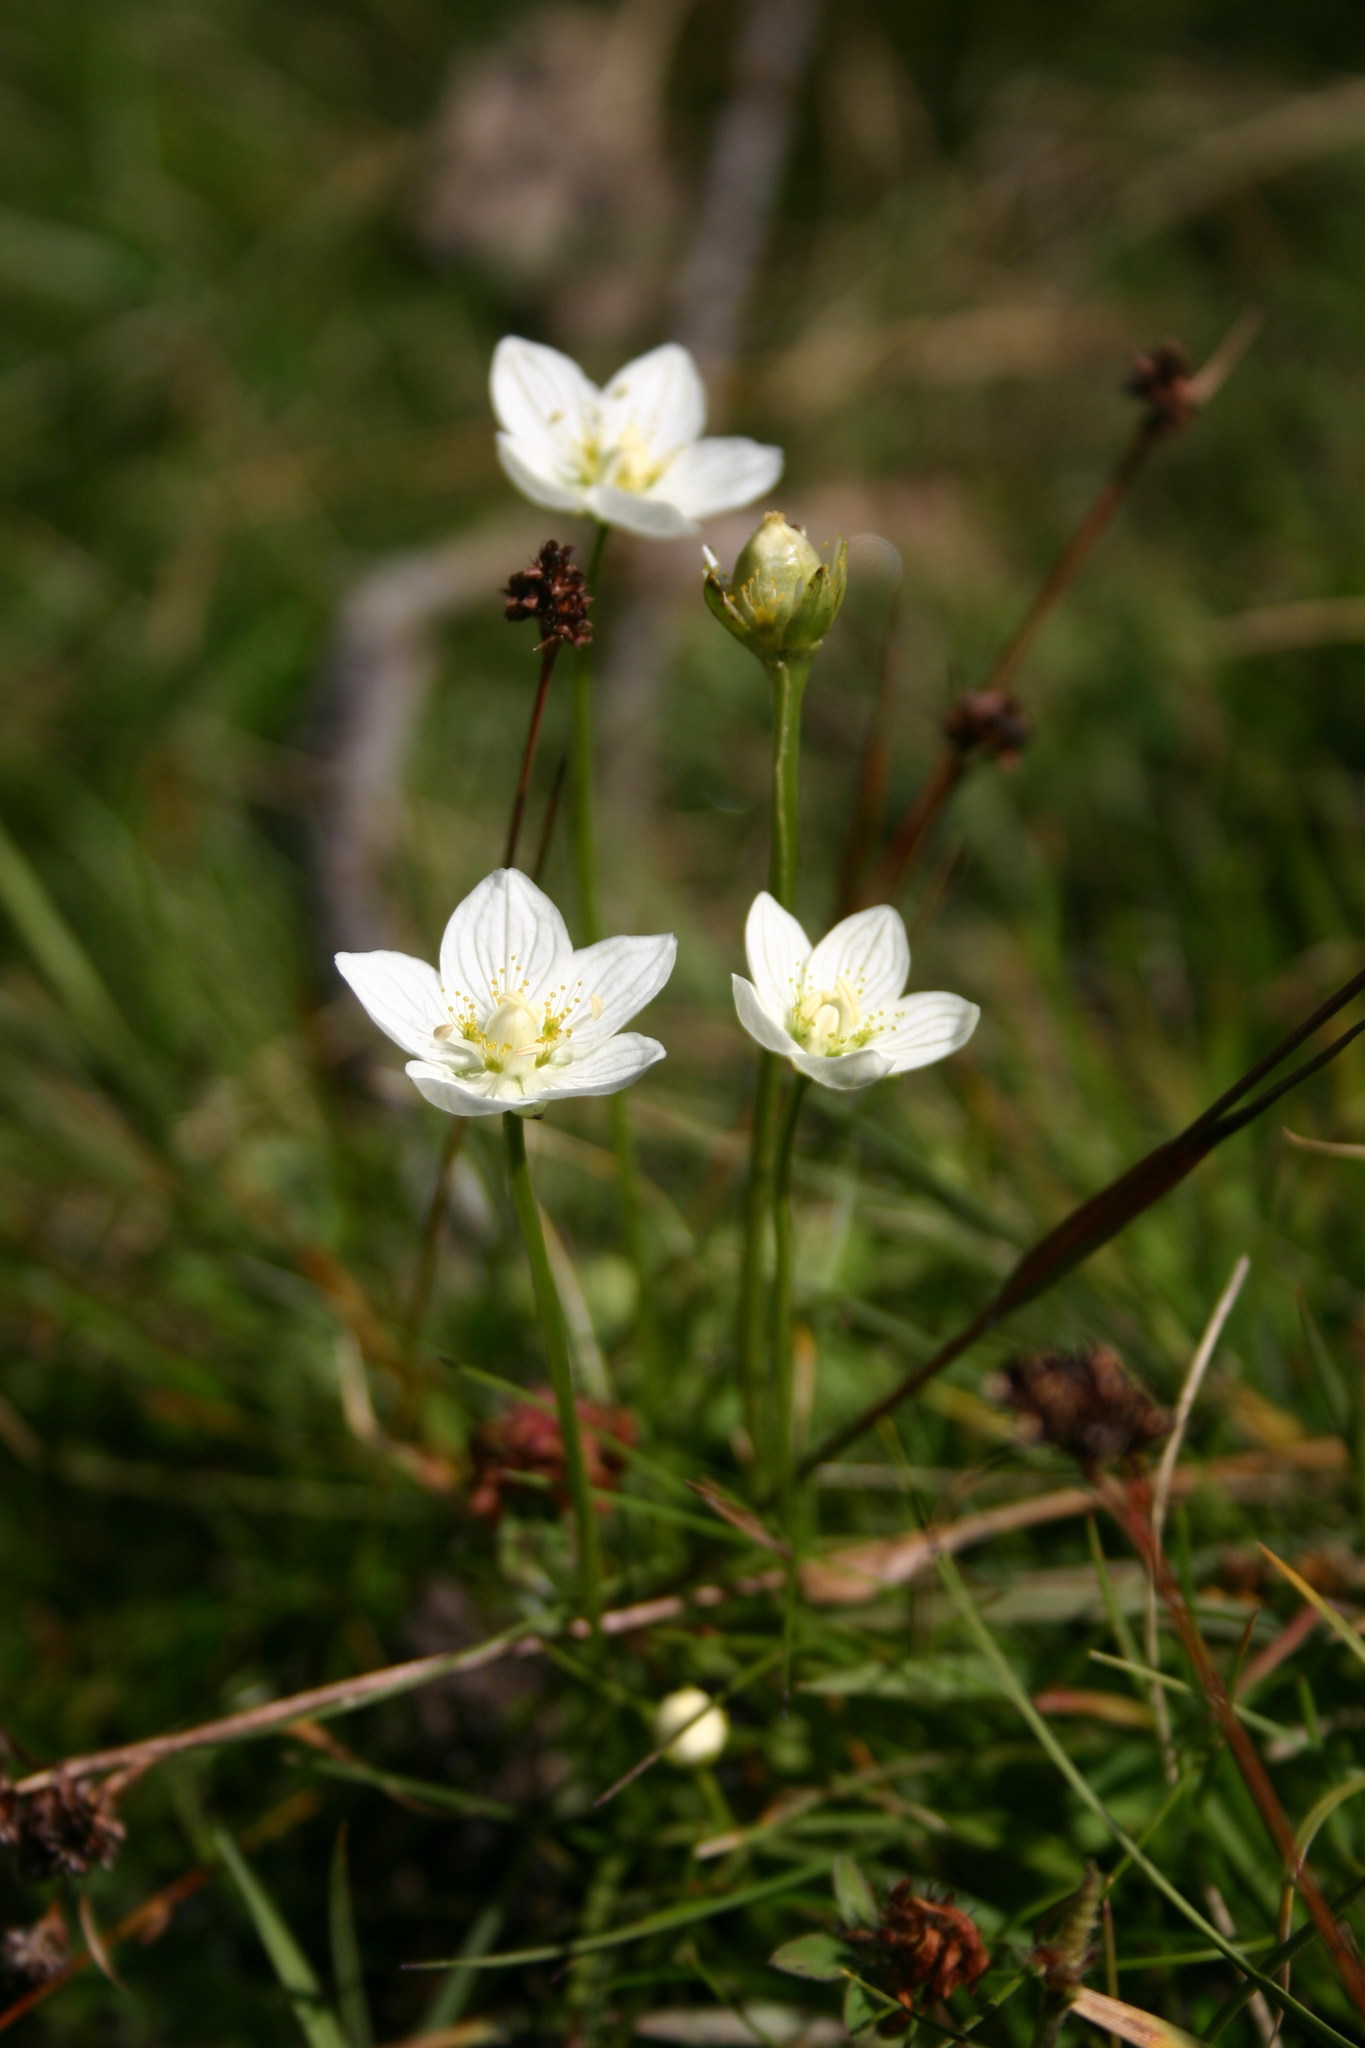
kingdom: Plantae
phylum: Tracheophyta
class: Magnoliopsida
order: Celastrales
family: Parnassiaceae
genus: Parnassia
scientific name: Parnassia palustris
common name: Grass-of-parnassus
